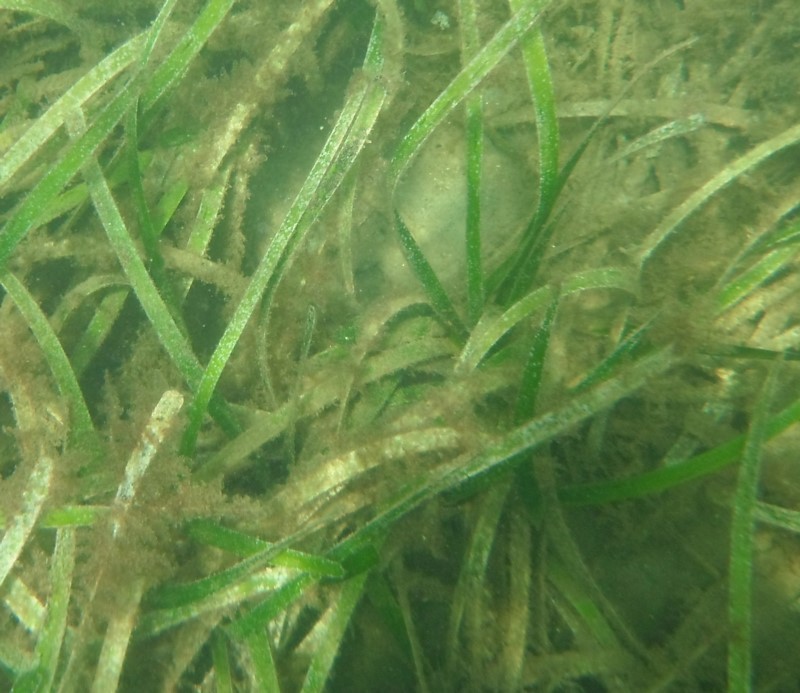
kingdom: Plantae
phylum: Tracheophyta
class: Liliopsida
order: Alismatales
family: Posidoniaceae
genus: Posidonia
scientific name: Posidonia australis
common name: Species code: pa
